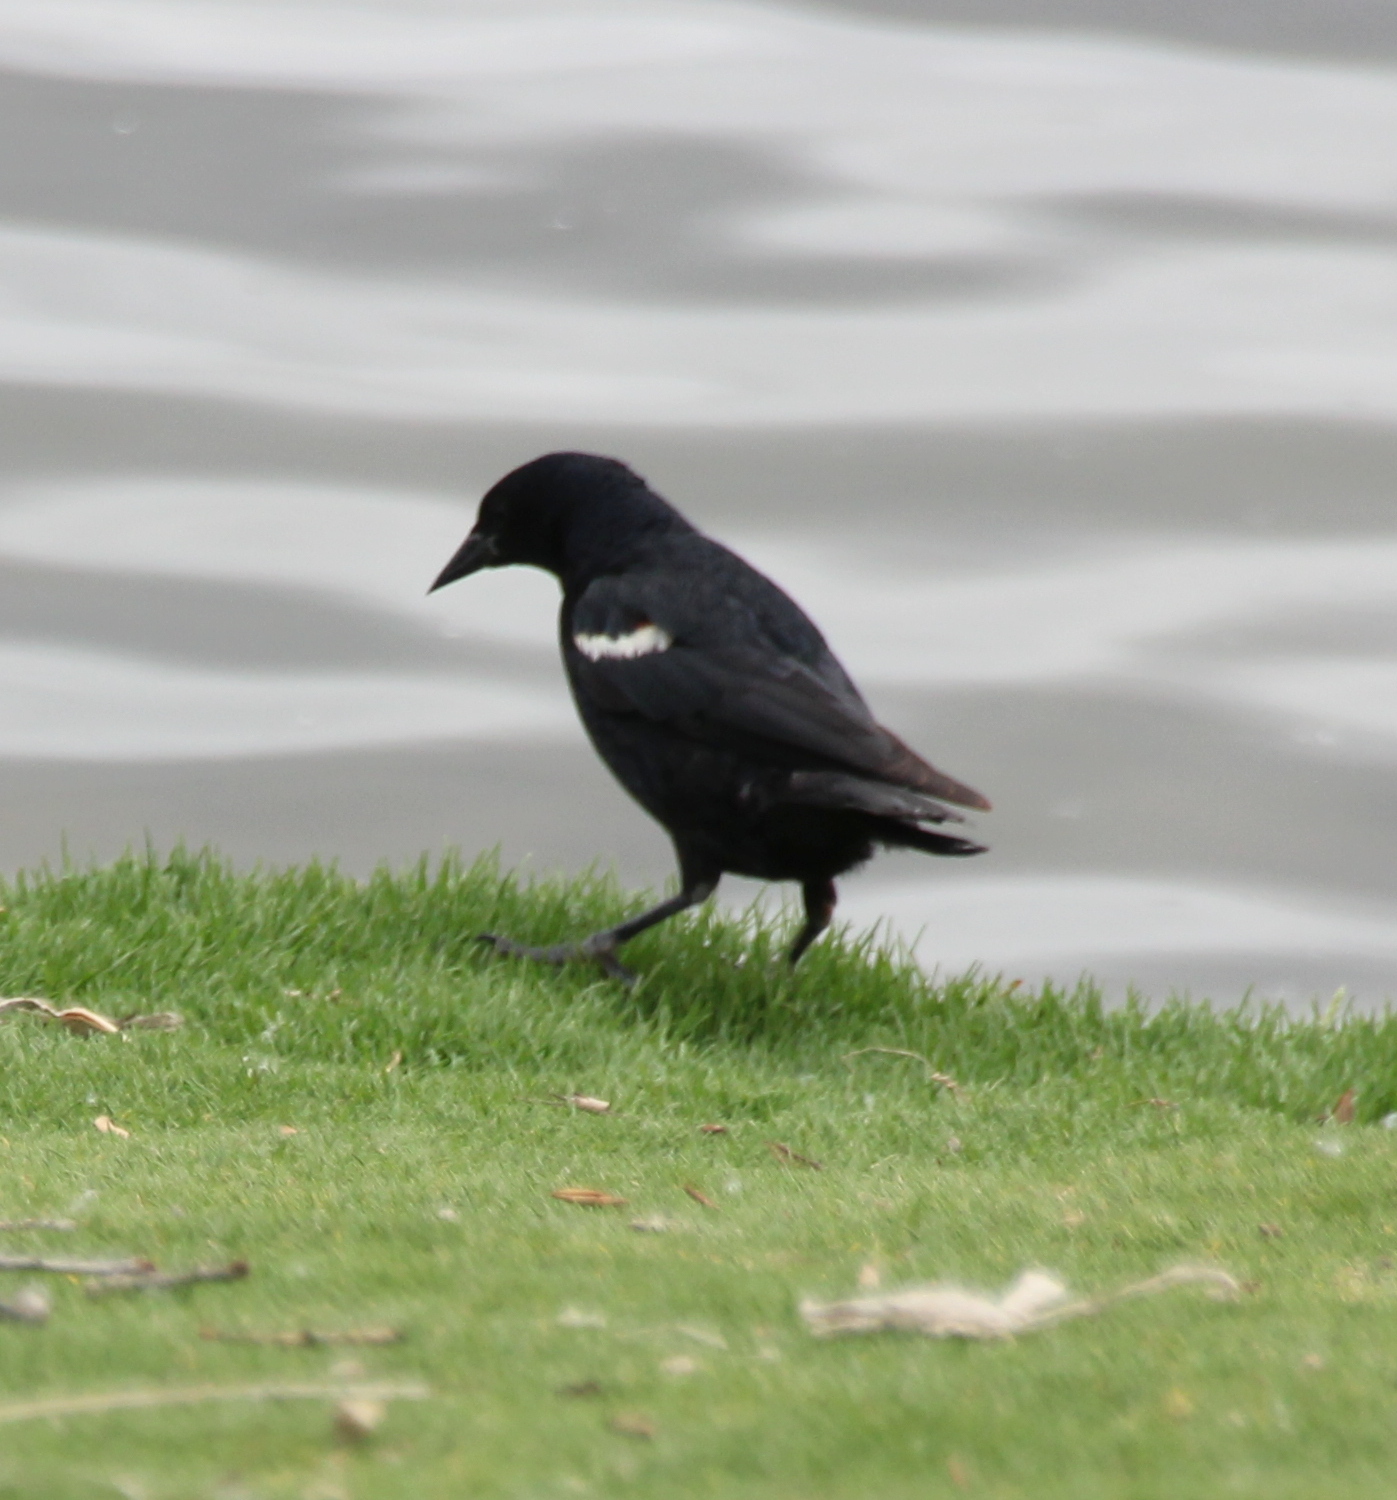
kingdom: Animalia
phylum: Chordata
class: Aves
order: Passeriformes
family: Icteridae
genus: Agelaius
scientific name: Agelaius tricolor
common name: Tricolored blackbird
